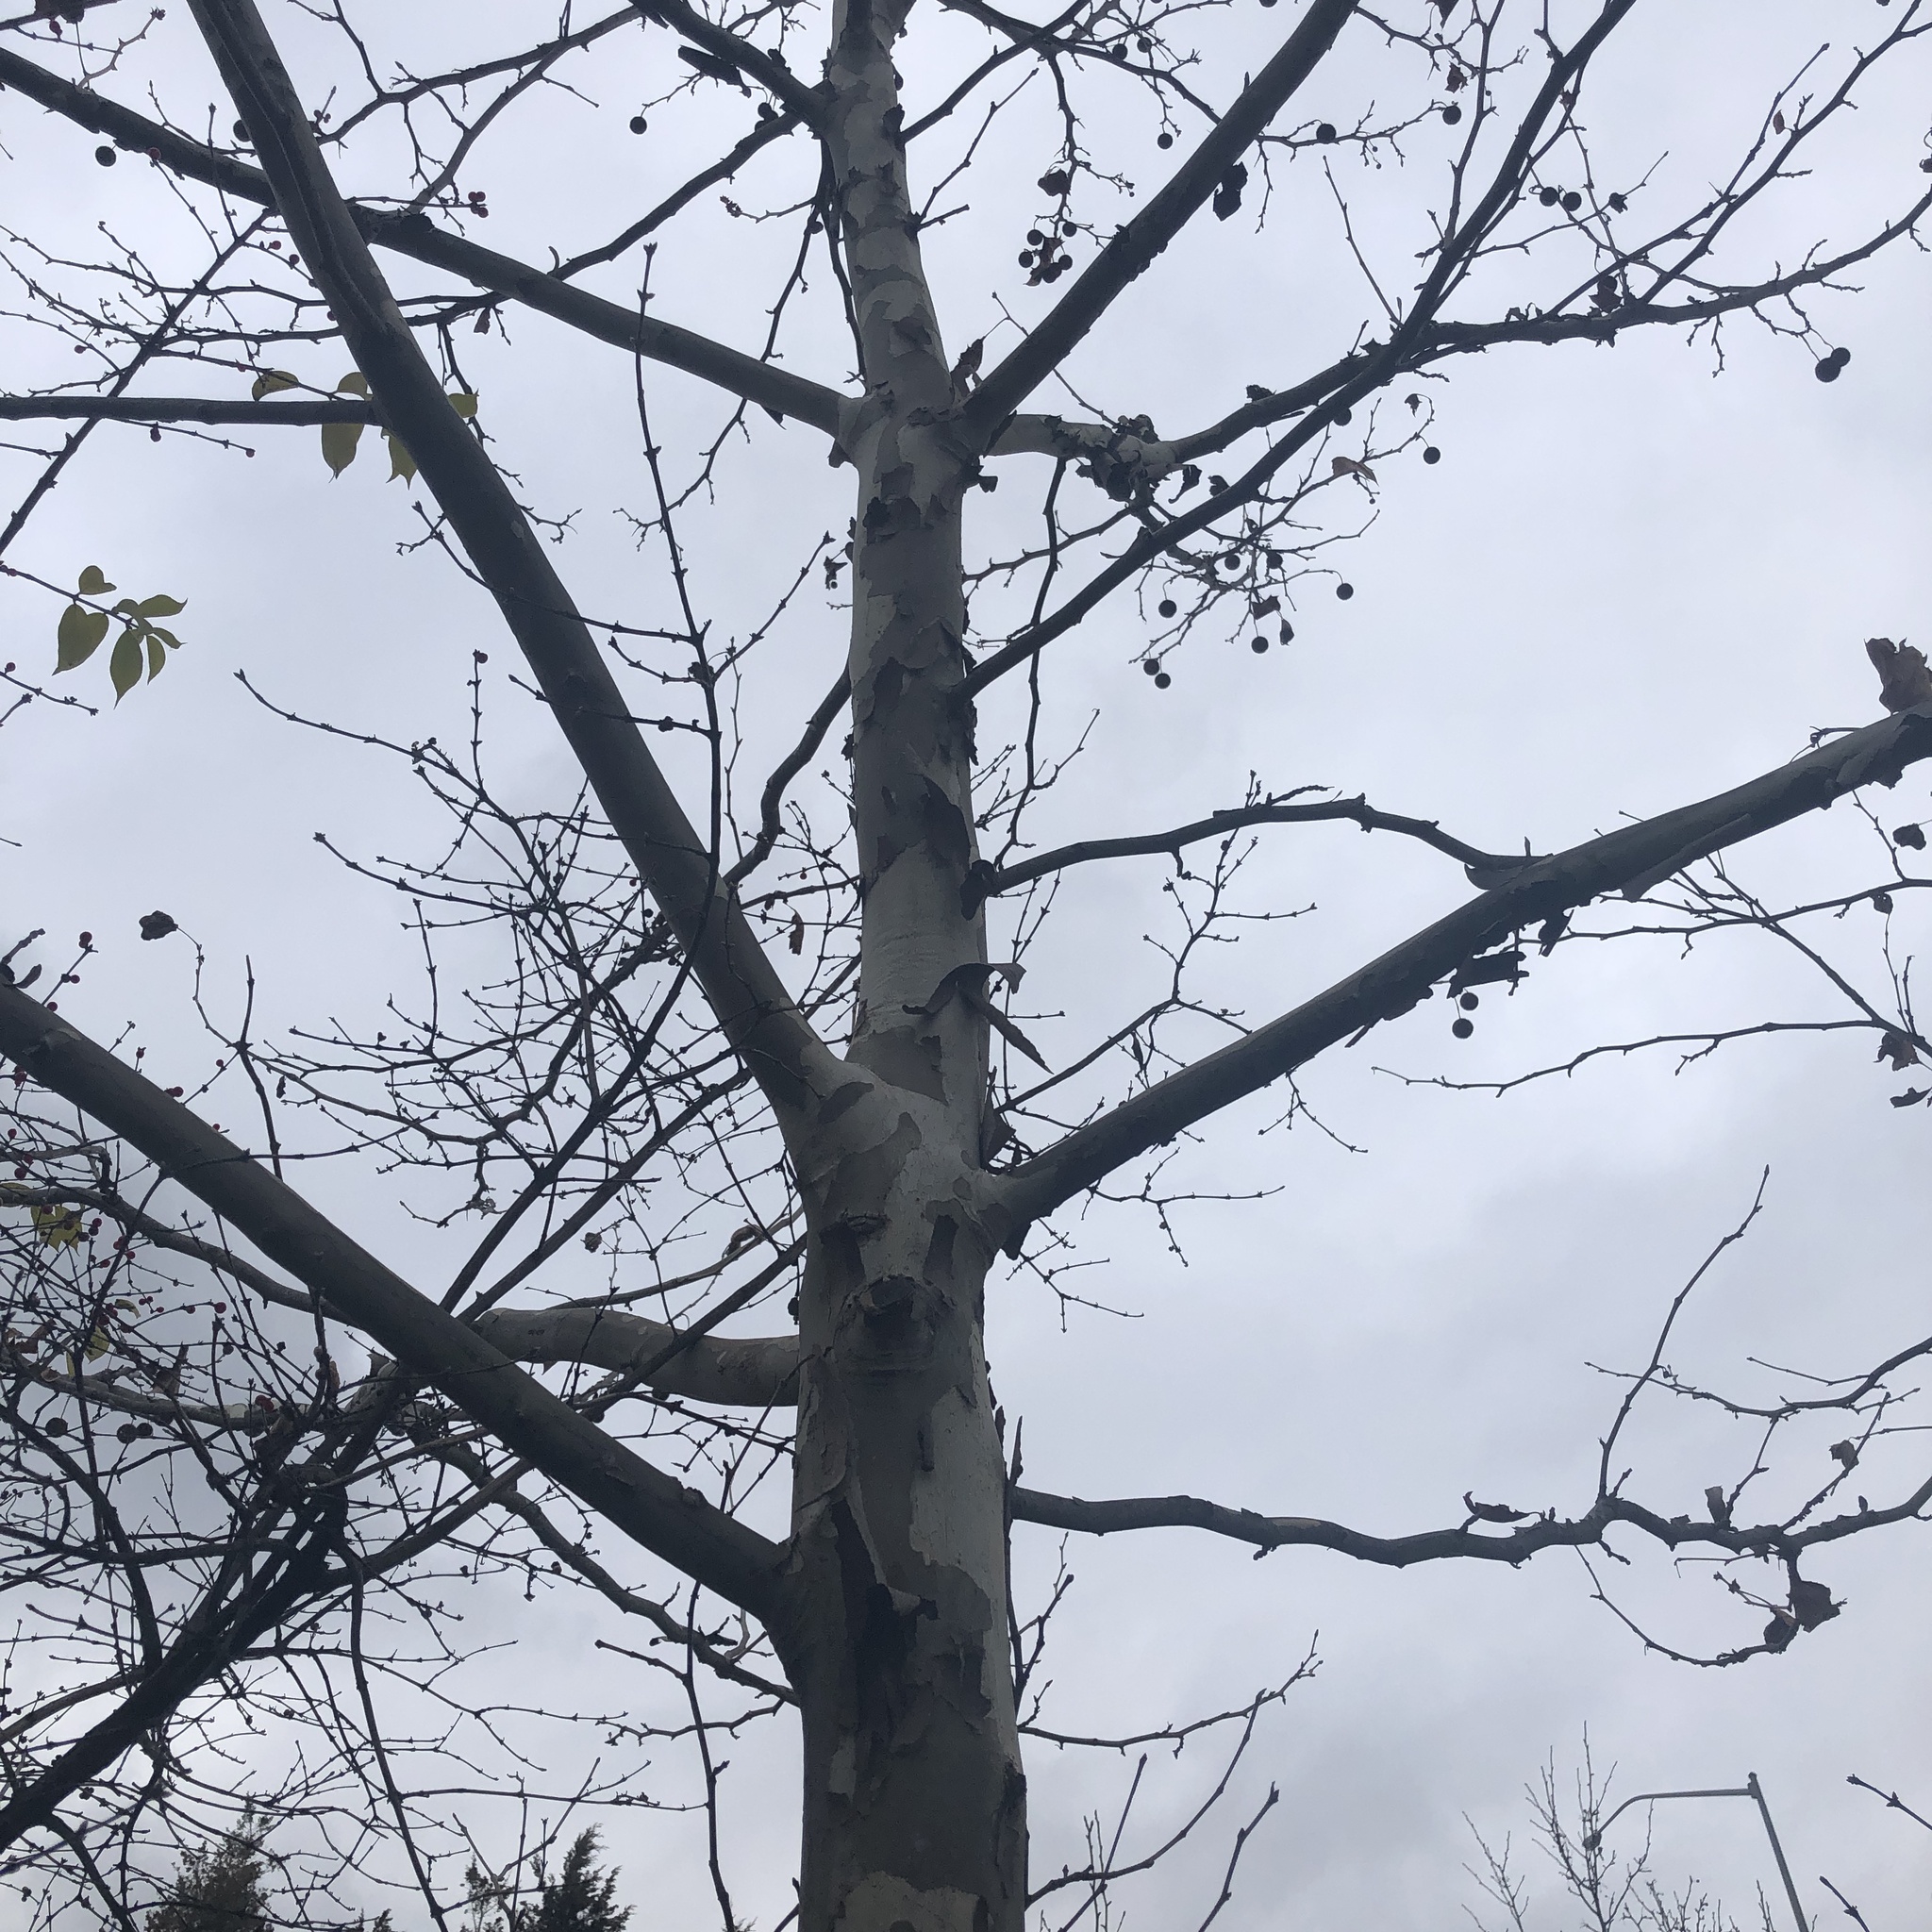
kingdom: Plantae
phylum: Tracheophyta
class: Magnoliopsida
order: Proteales
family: Platanaceae
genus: Platanus
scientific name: Platanus occidentalis
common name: American sycamore
